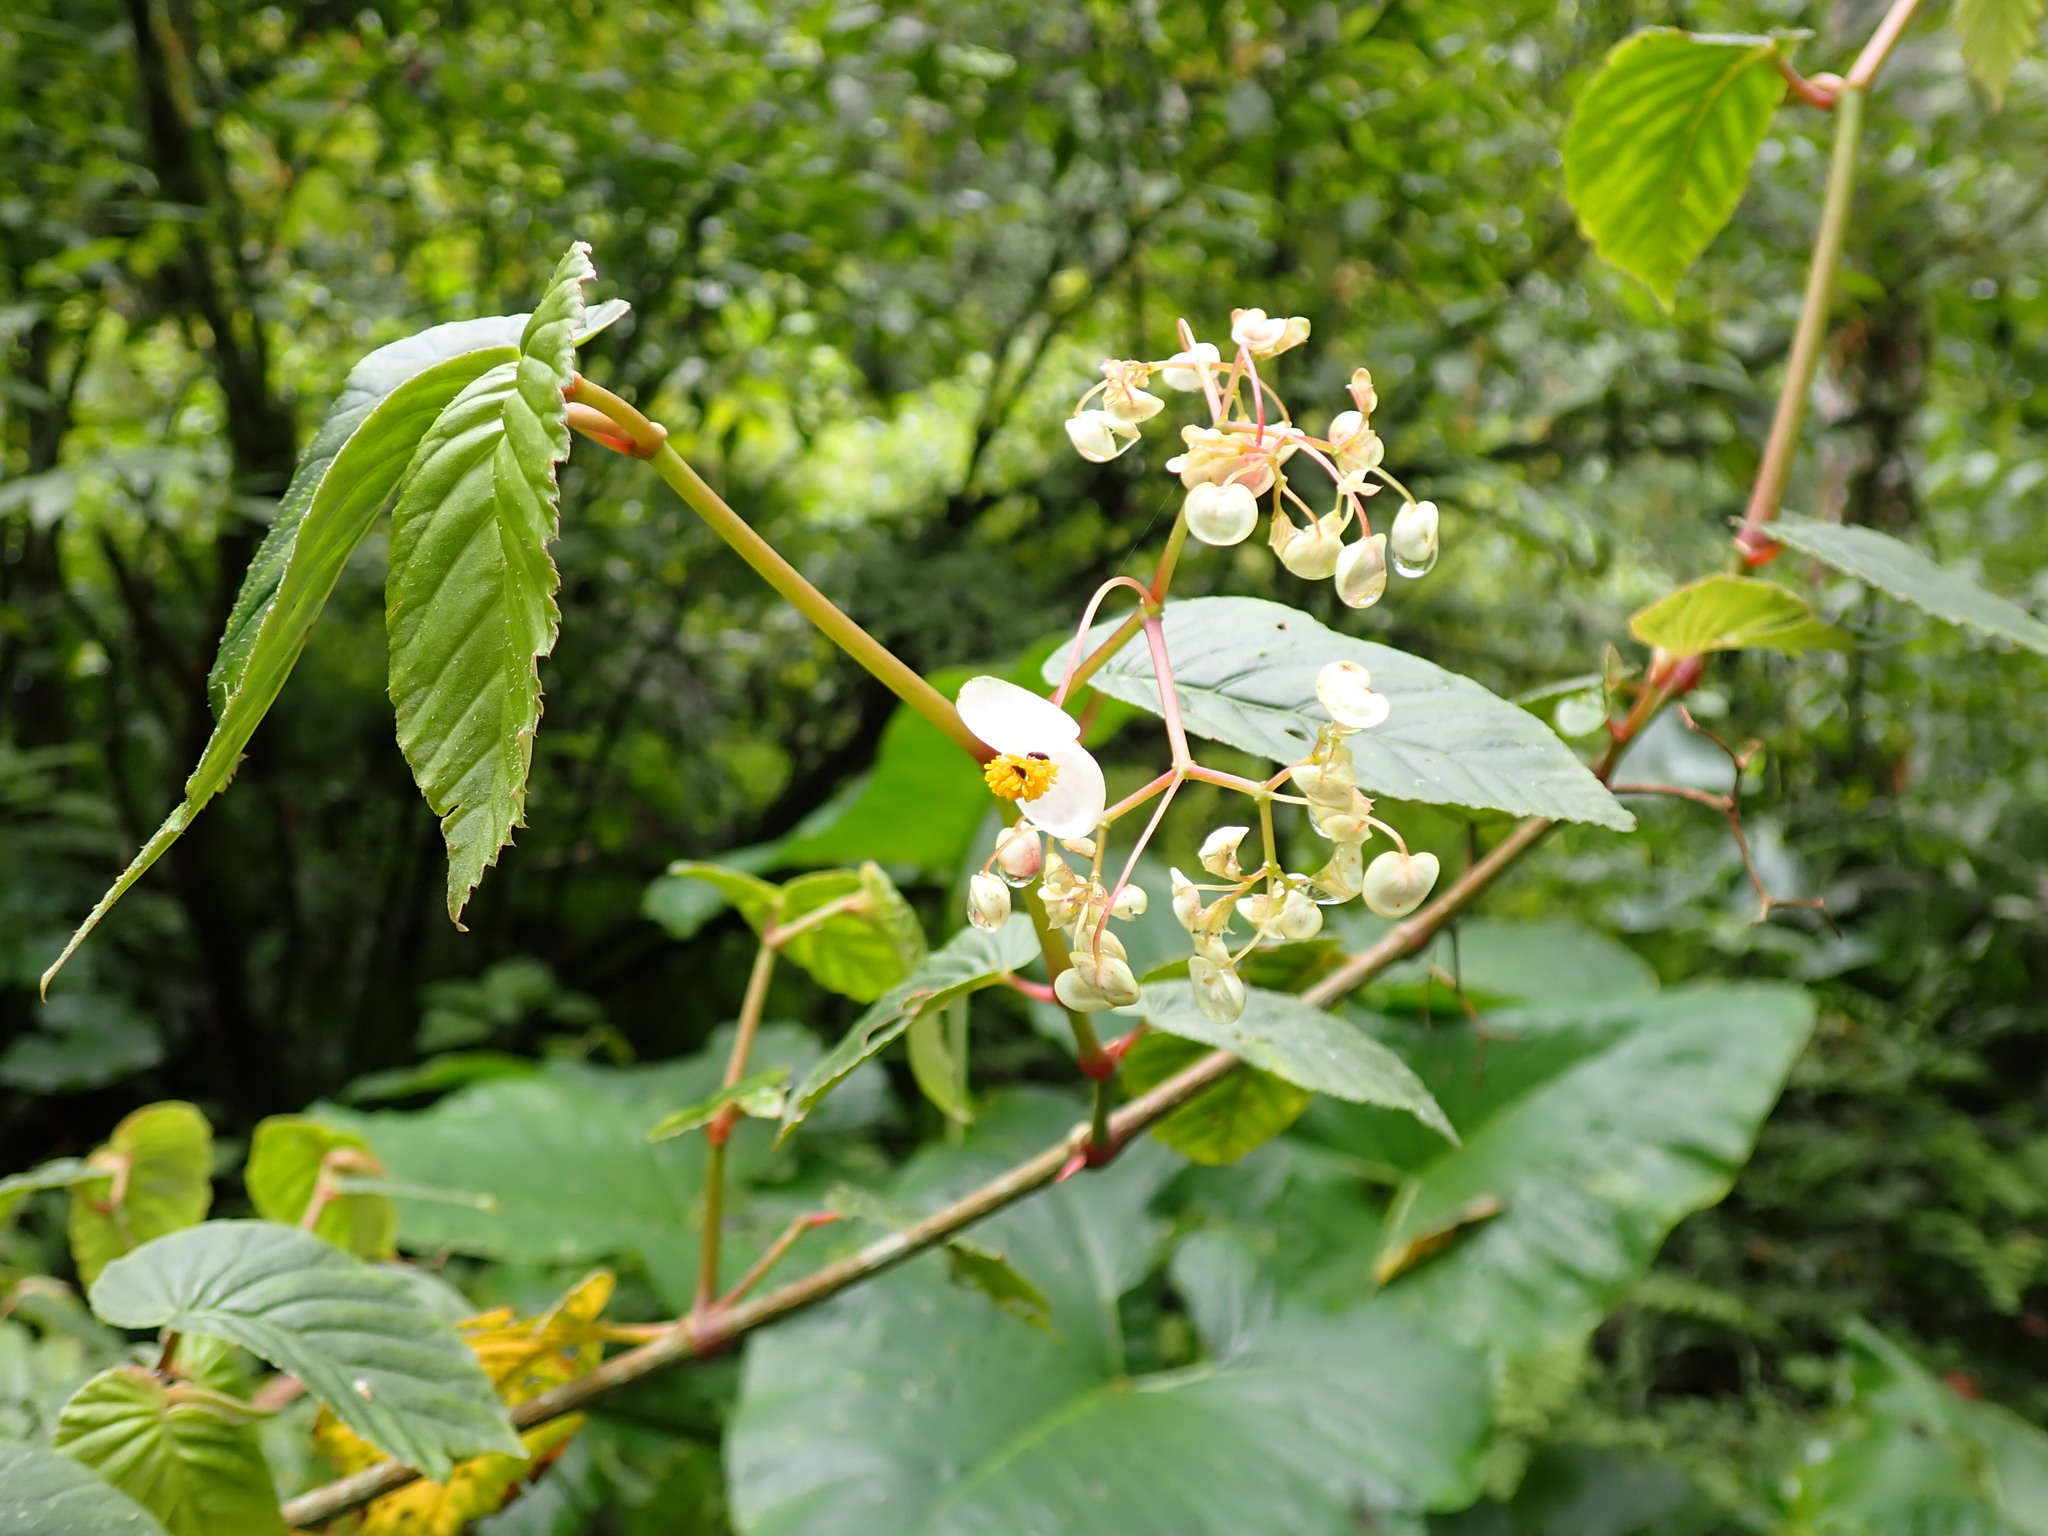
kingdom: Plantae
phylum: Tracheophyta
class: Magnoliopsida
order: Cucurbitales
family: Begoniaceae
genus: Begonia
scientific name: Begonia peruviana
